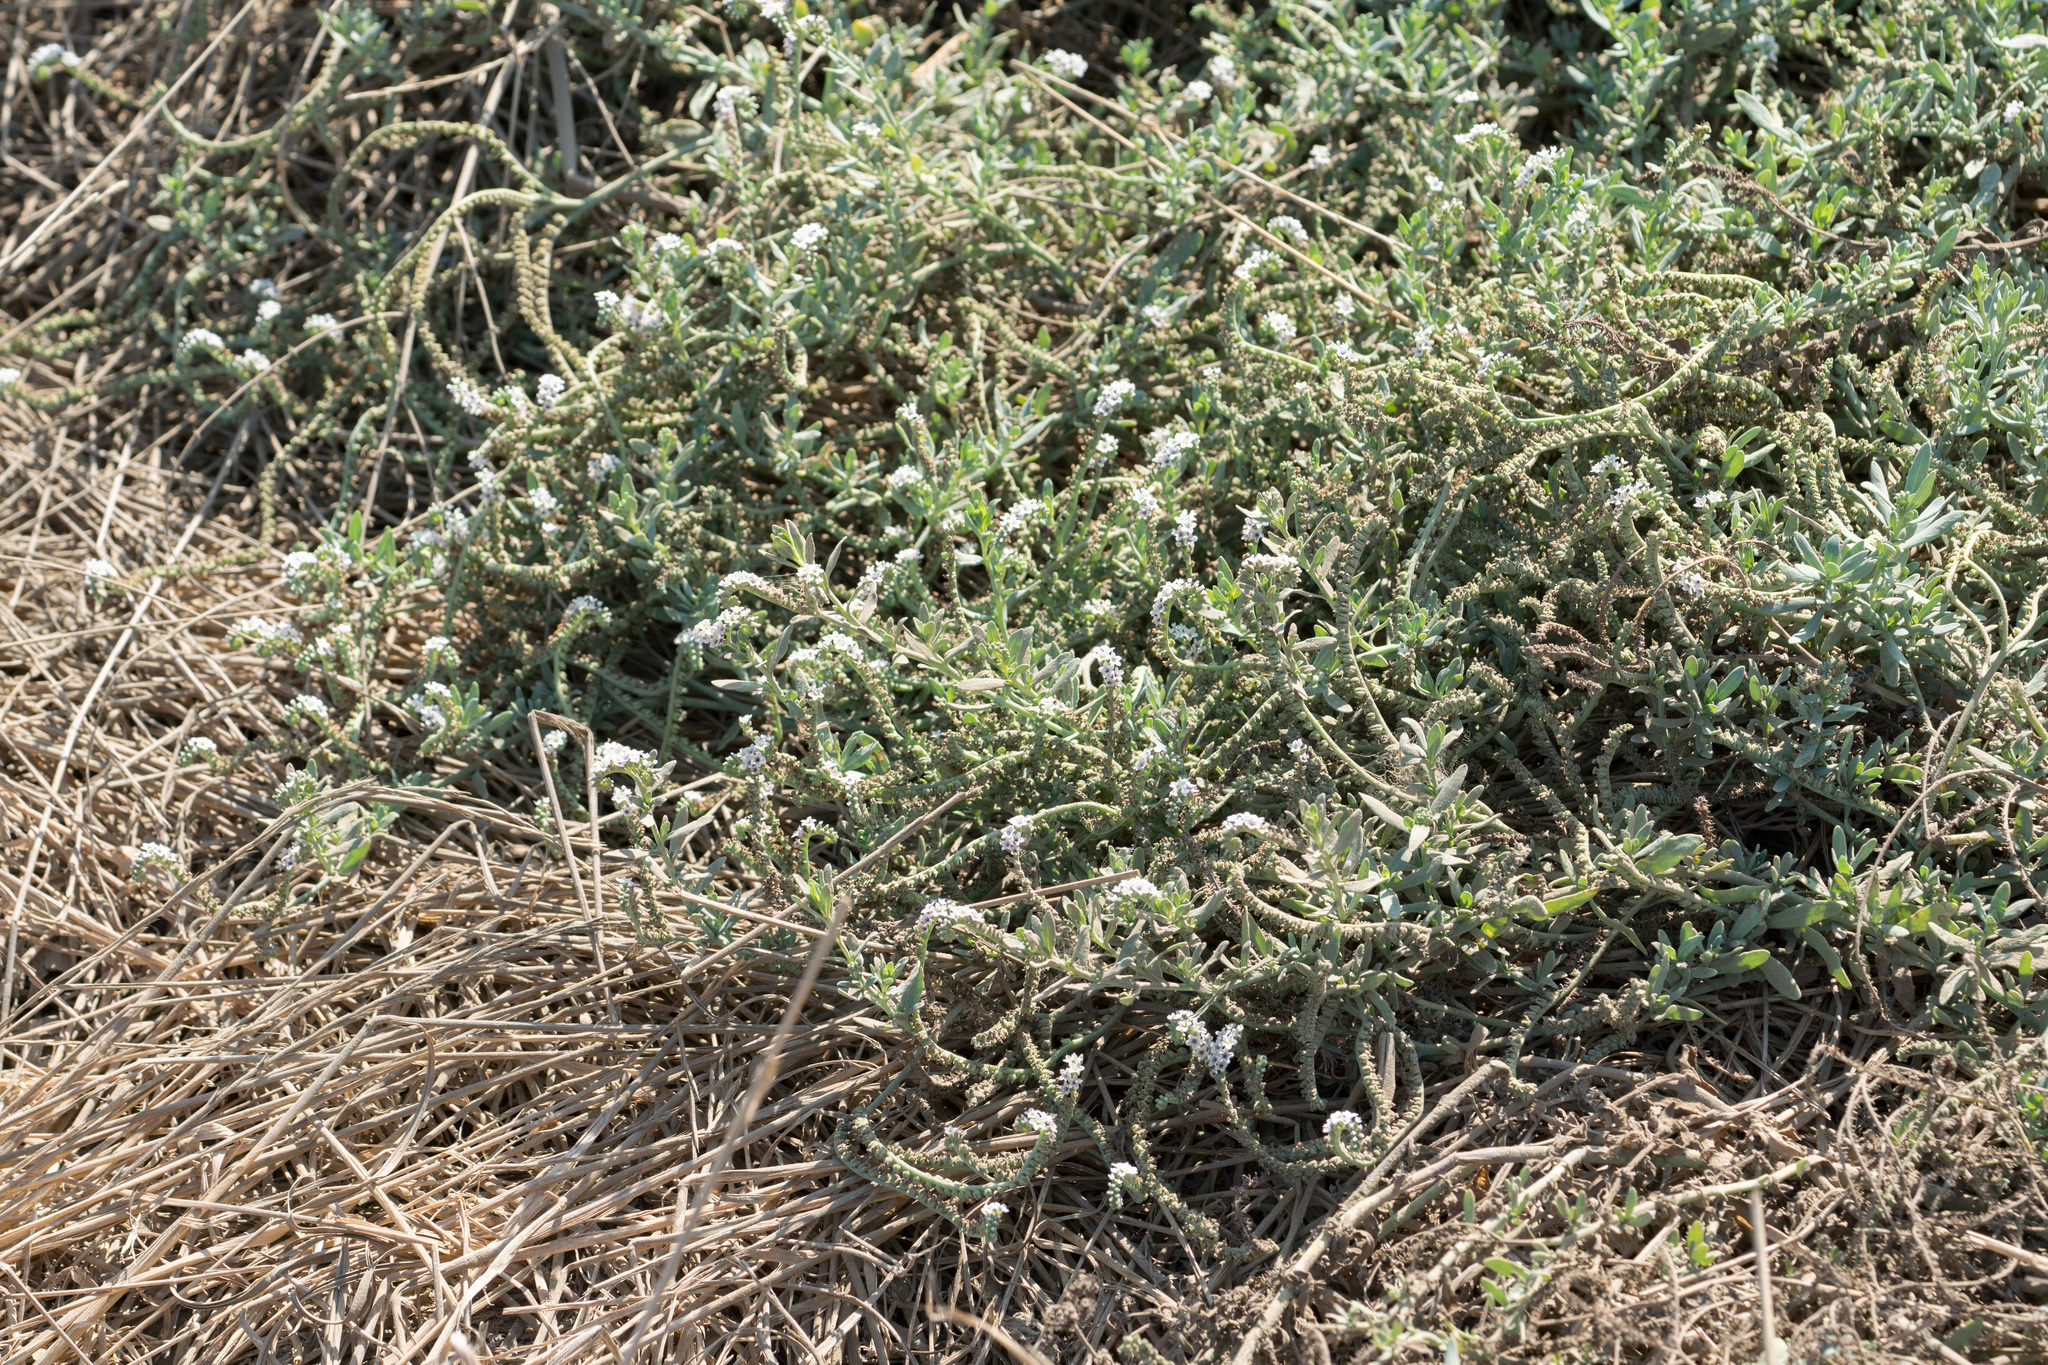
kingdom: Plantae
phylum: Tracheophyta
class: Magnoliopsida
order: Boraginales
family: Heliotropiaceae
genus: Heliotropium
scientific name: Heliotropium curassavicum
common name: Seaside heliotrope
